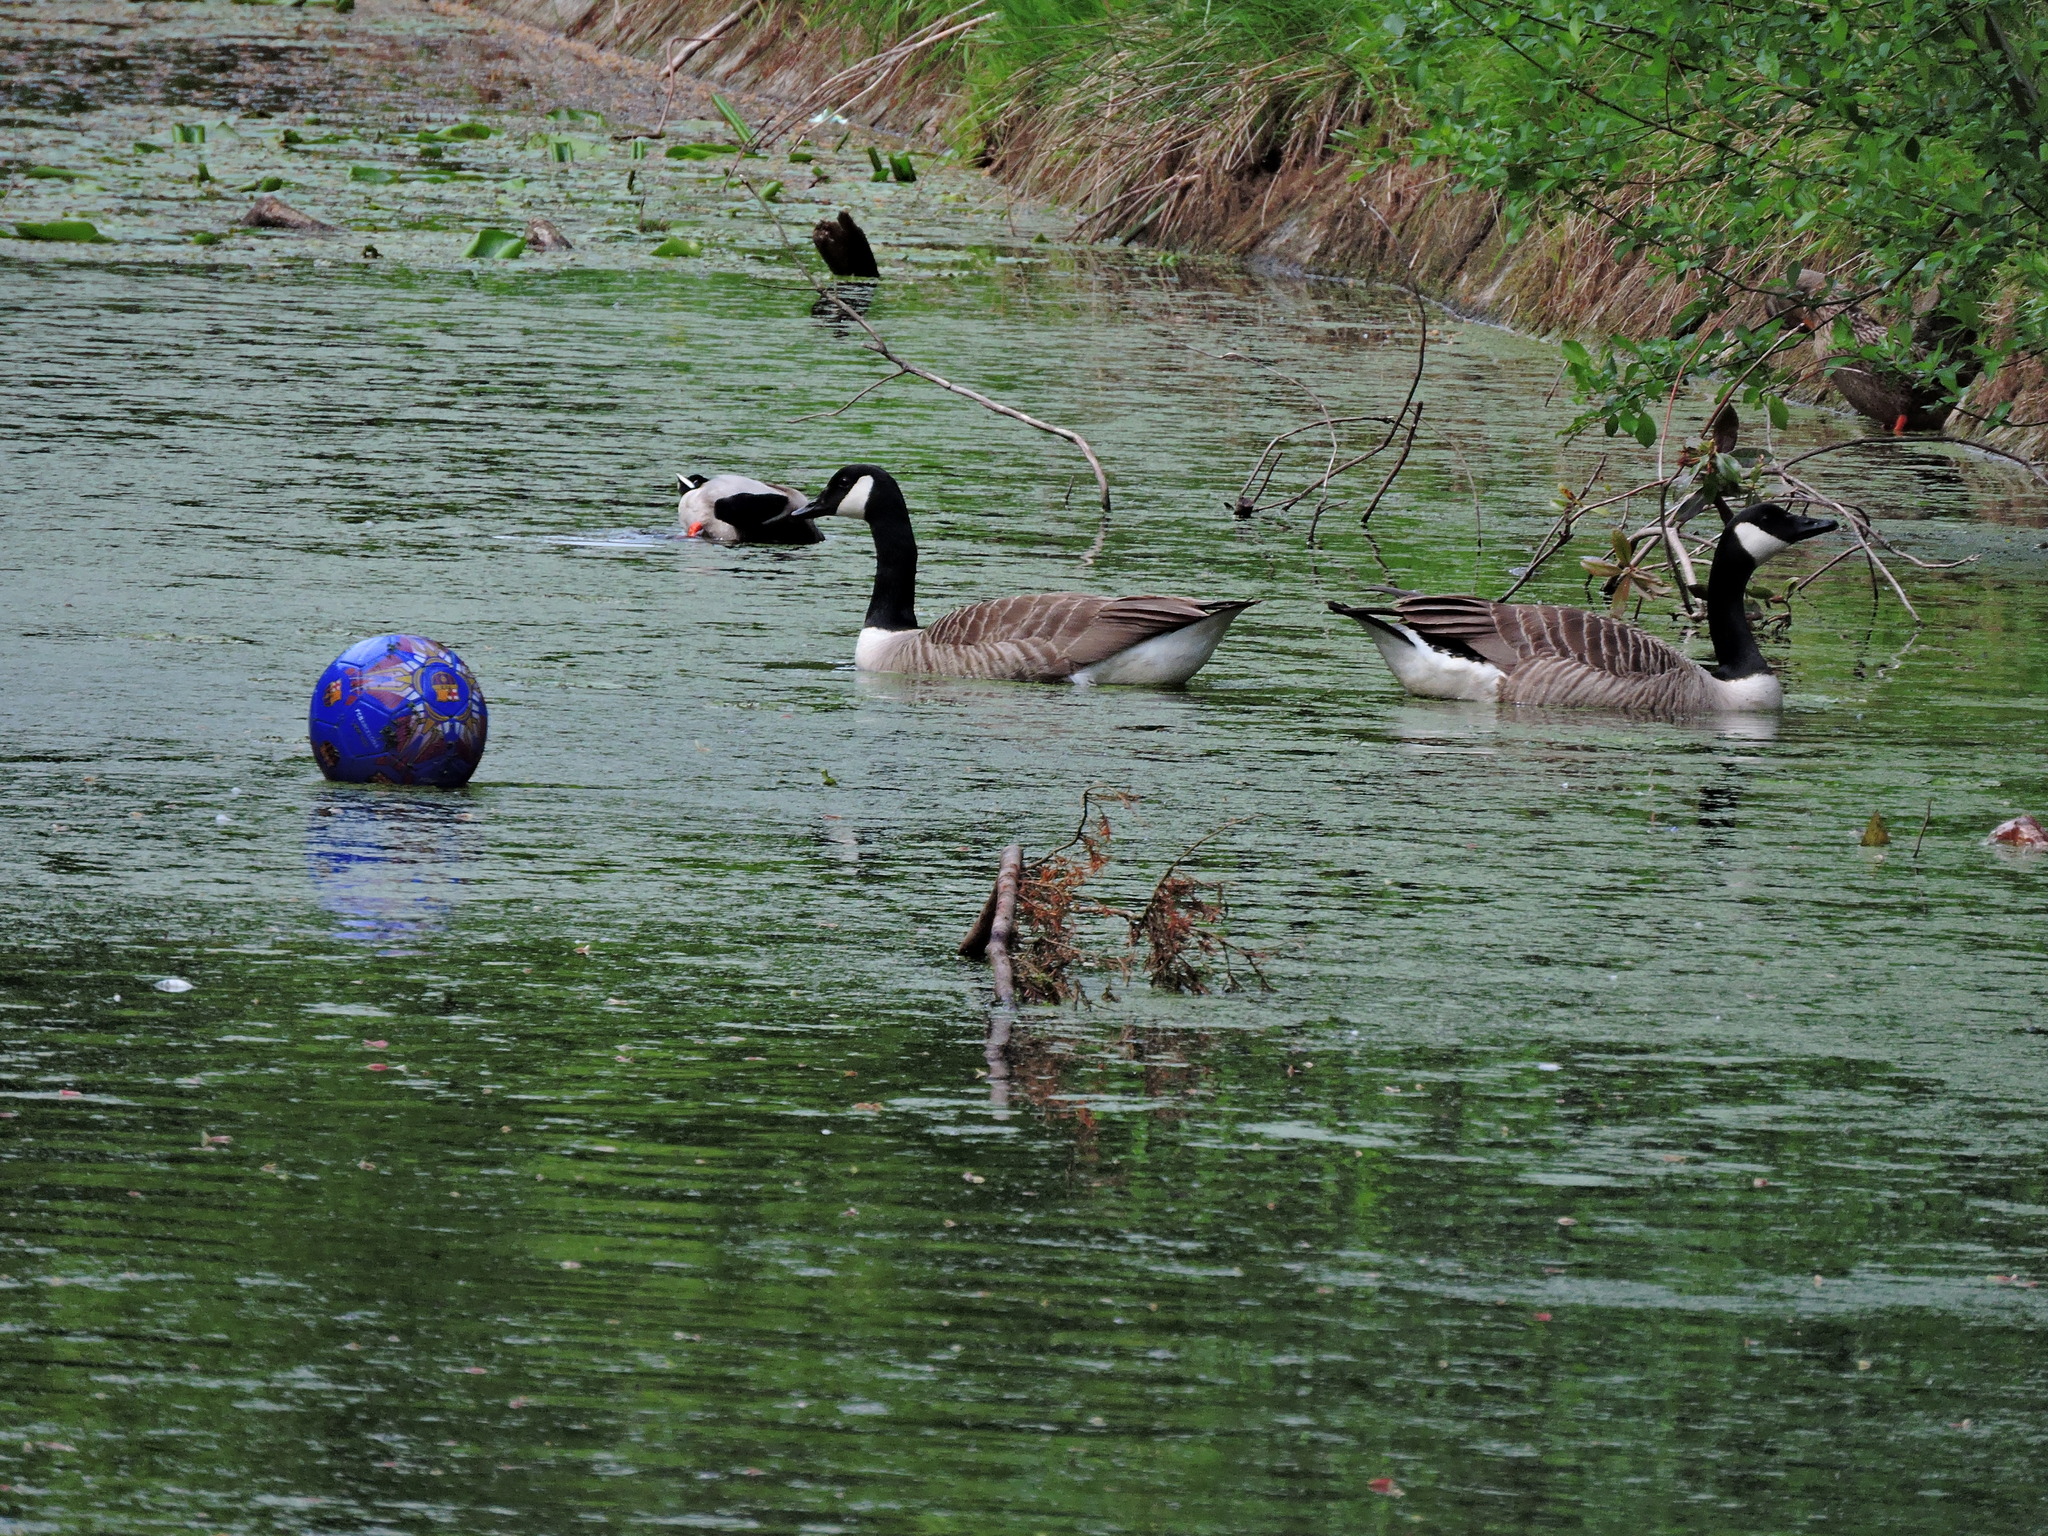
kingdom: Animalia
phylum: Chordata
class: Aves
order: Anseriformes
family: Anatidae
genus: Branta
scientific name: Branta canadensis
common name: Canada goose
